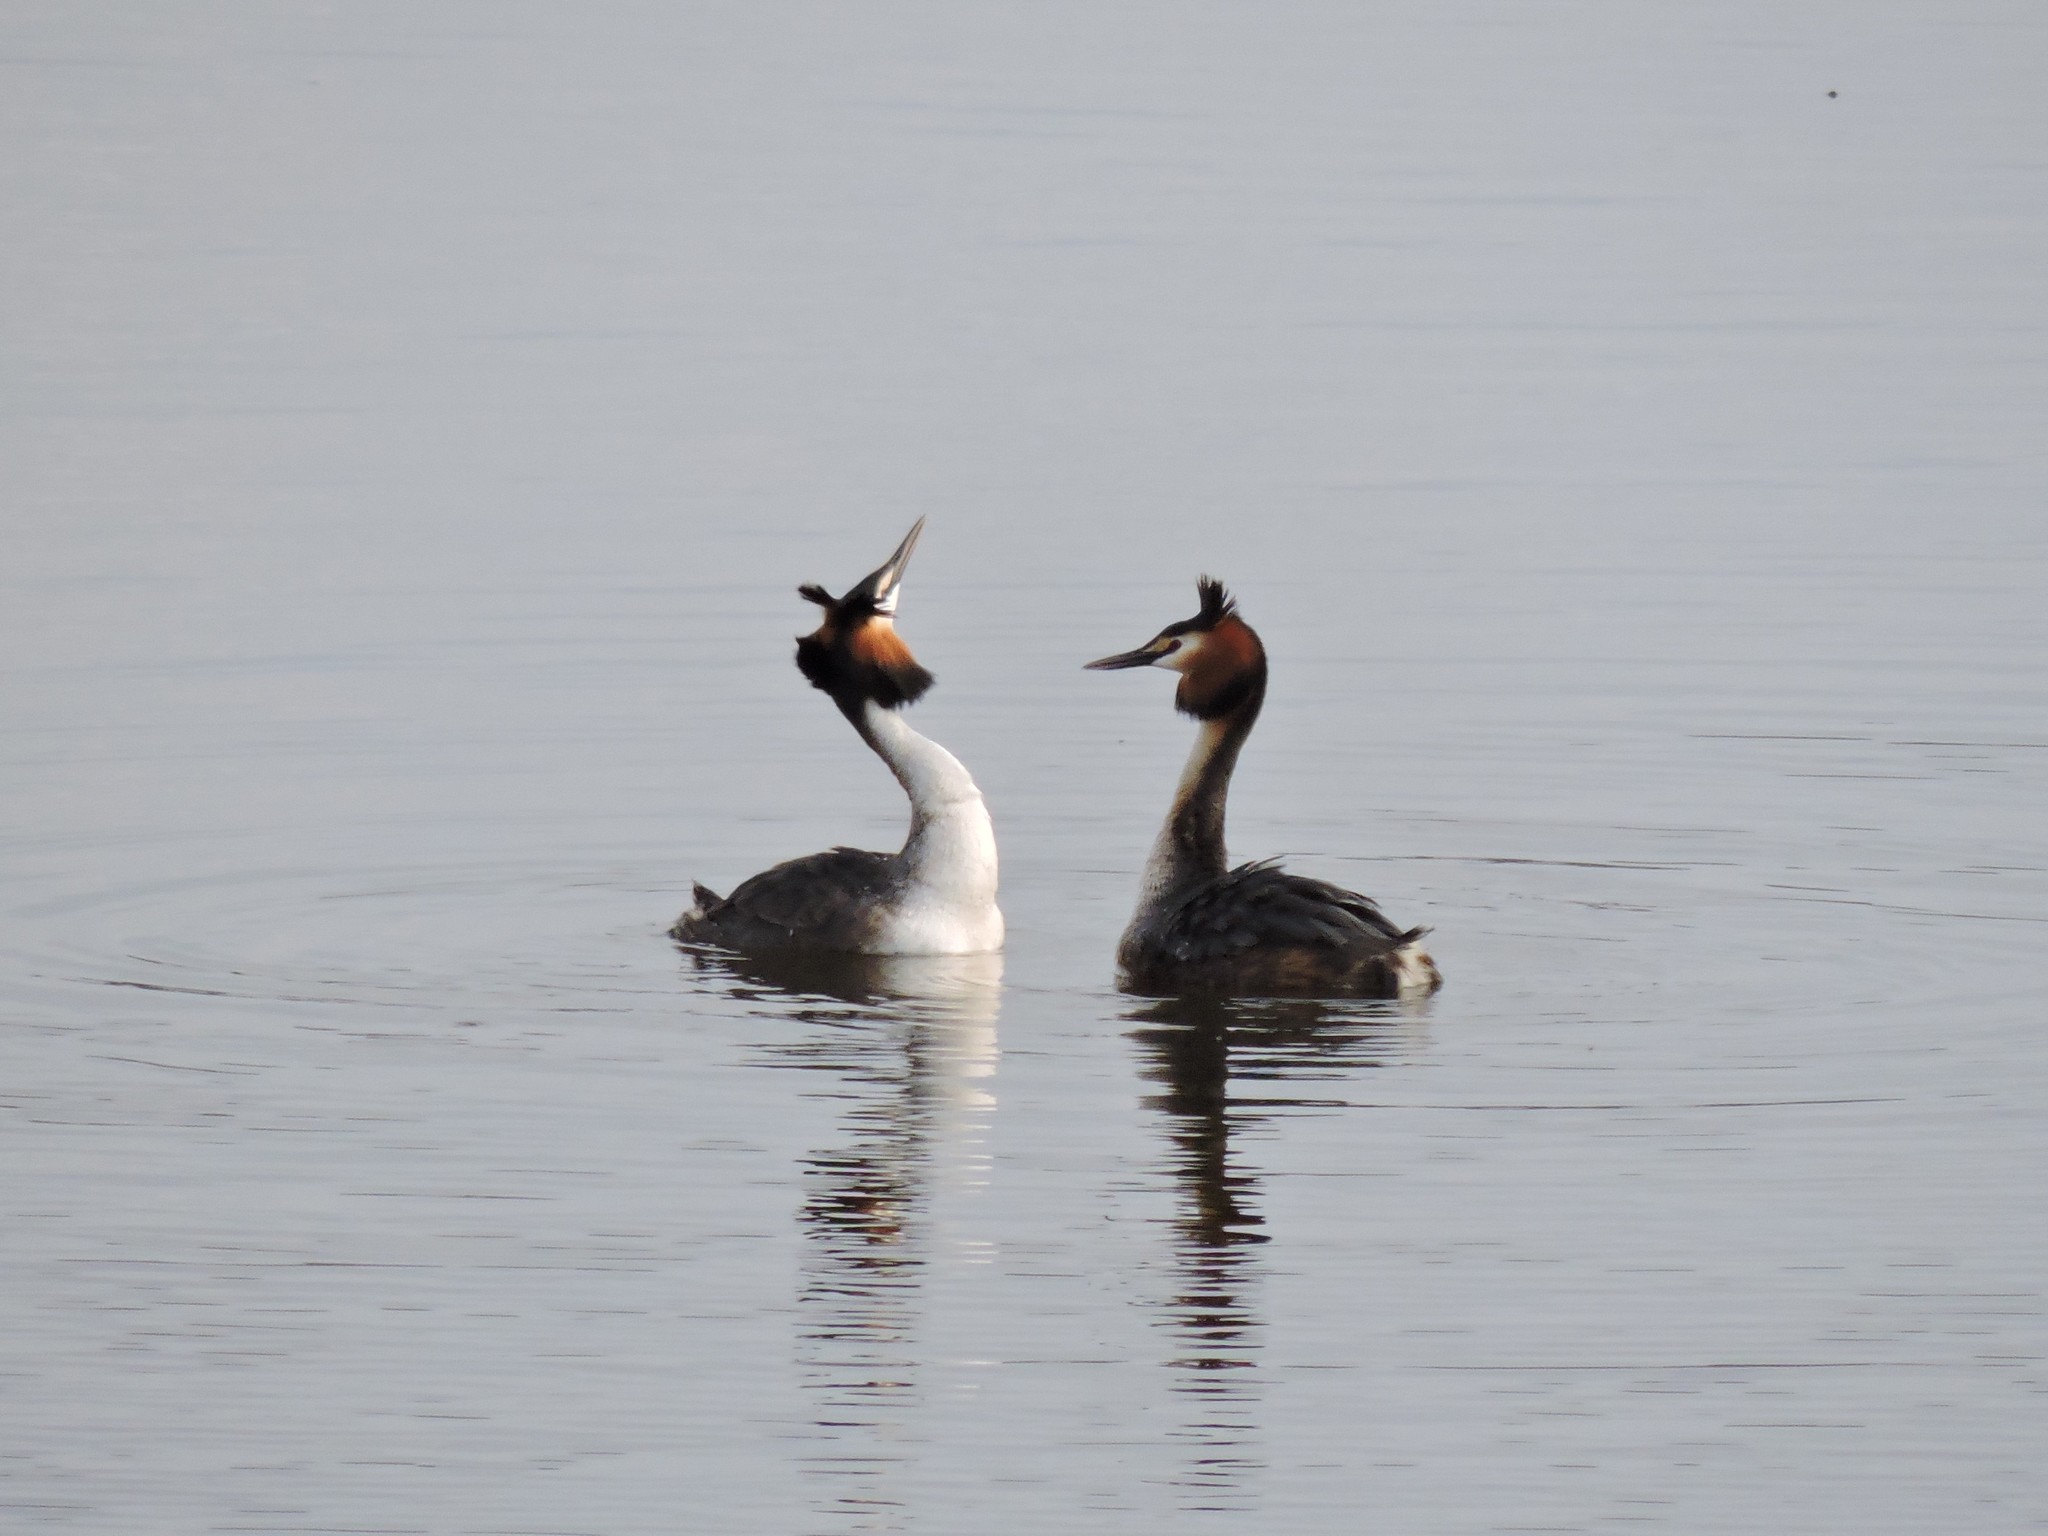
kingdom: Animalia
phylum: Chordata
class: Aves
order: Podicipediformes
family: Podicipedidae
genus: Podiceps
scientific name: Podiceps cristatus
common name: Great crested grebe
